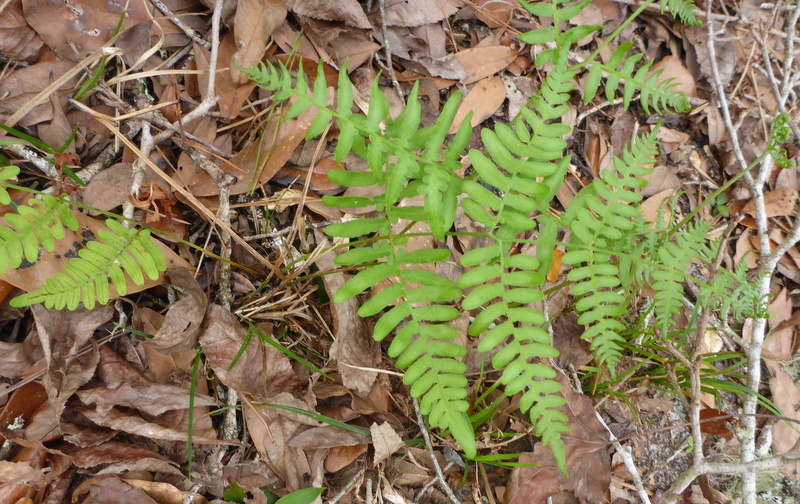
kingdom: Plantae
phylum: Tracheophyta
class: Polypodiopsida
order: Polypodiales
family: Dennstaedtiaceae
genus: Pteridium
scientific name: Pteridium aquilinum
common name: Bracken
